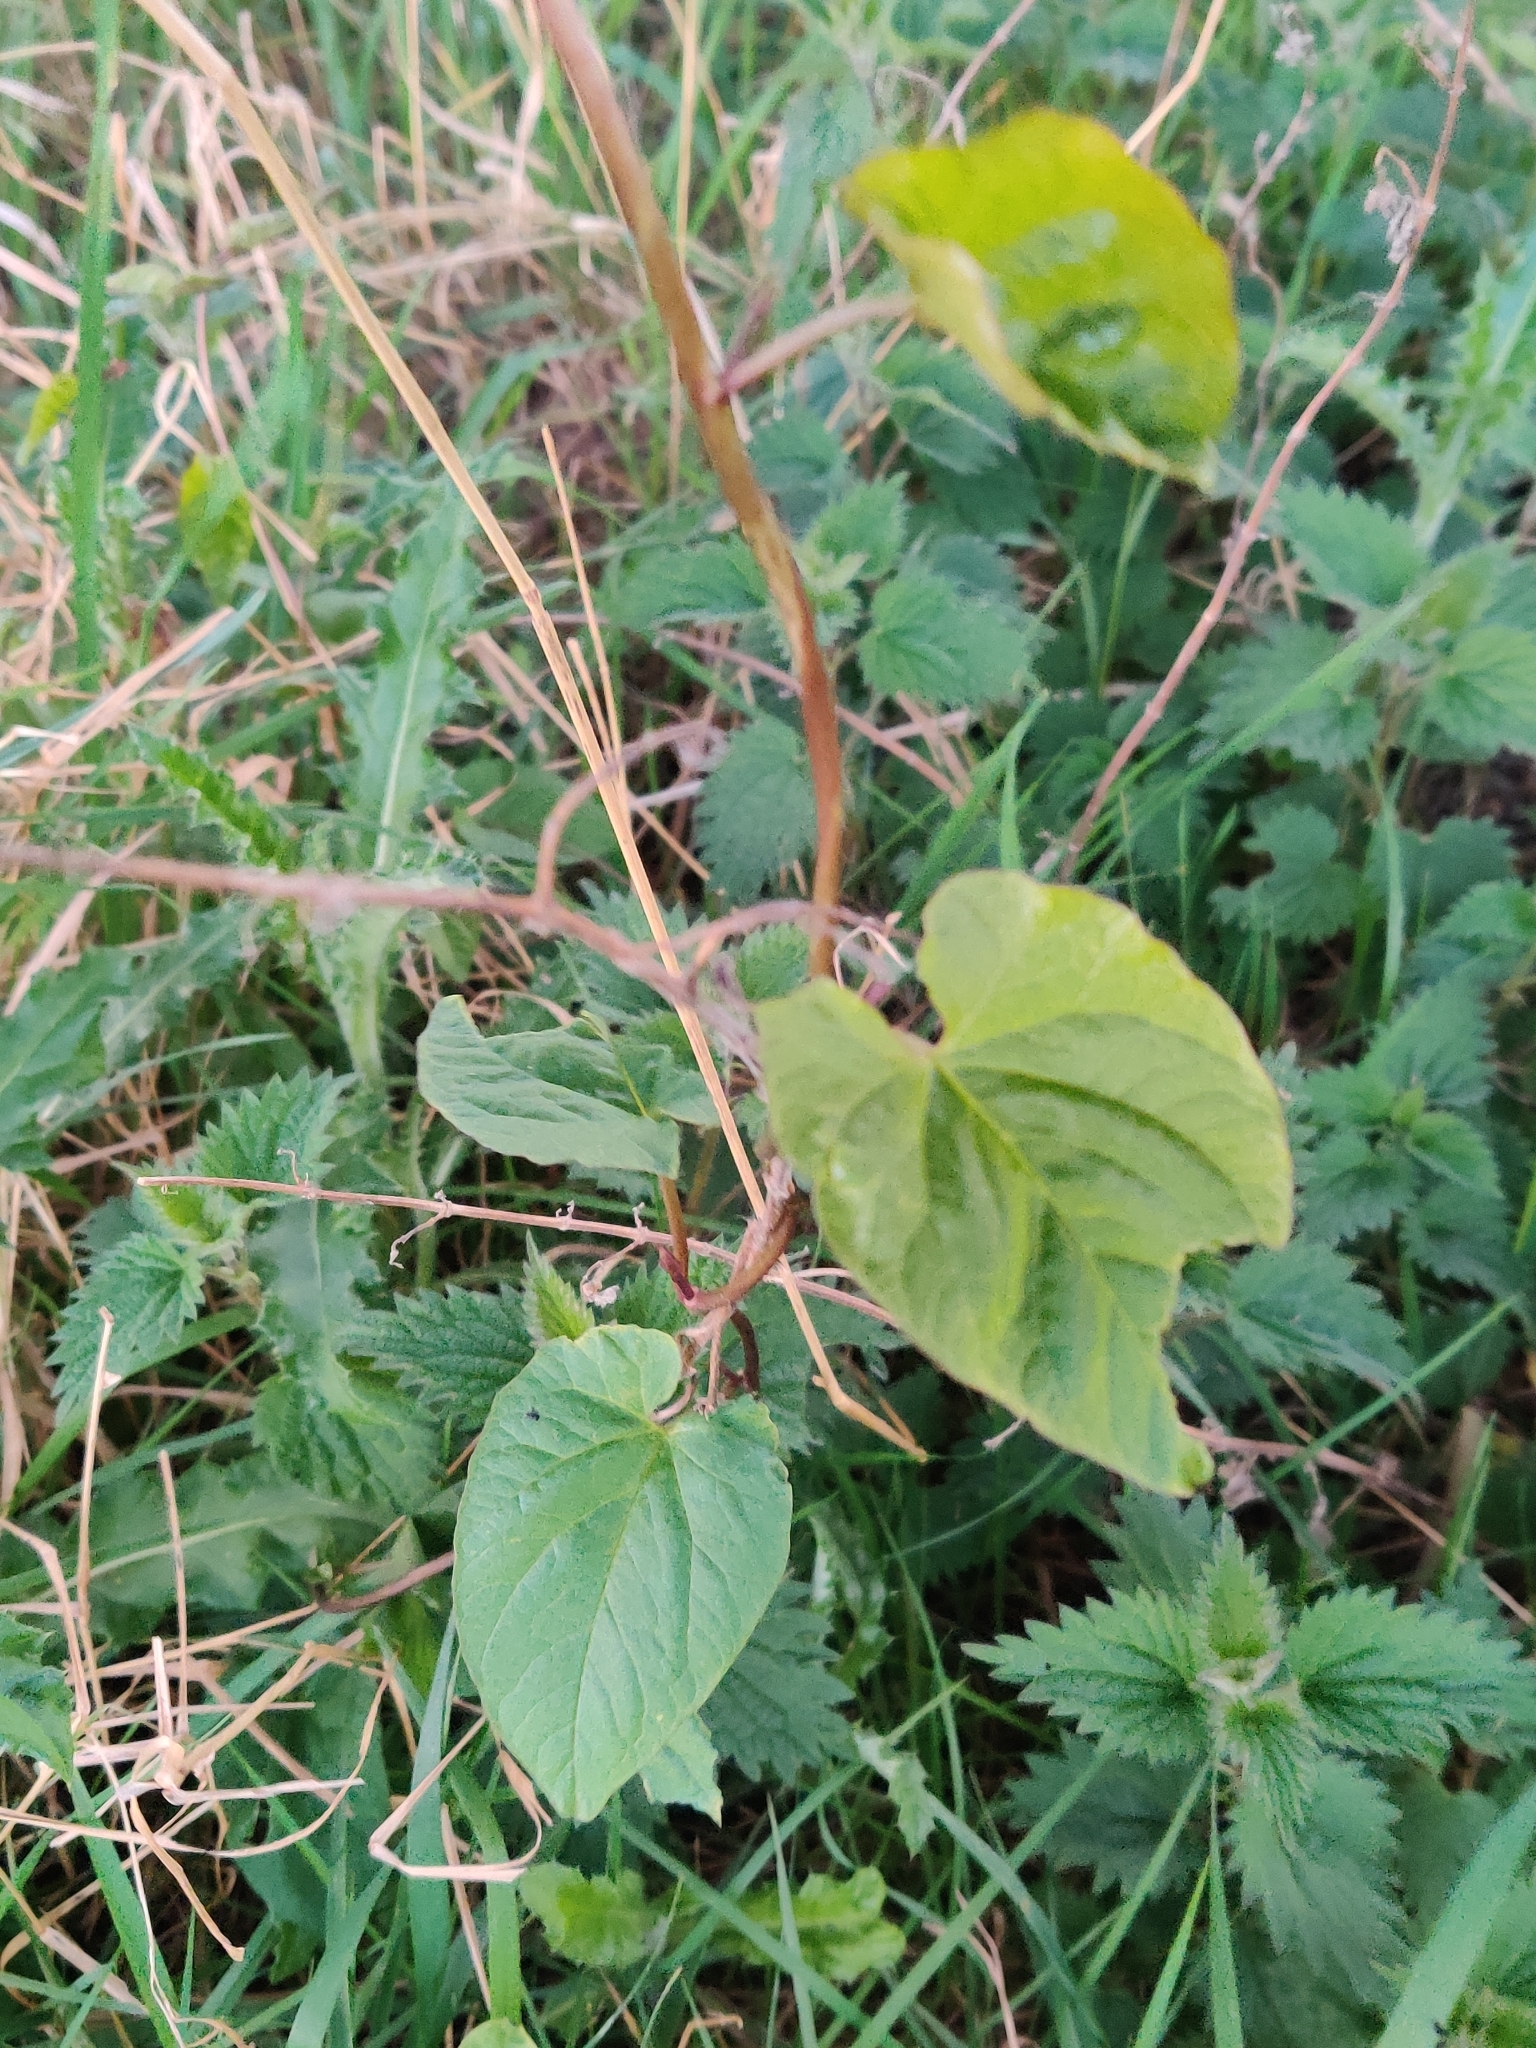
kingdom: Plantae
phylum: Tracheophyta
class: Magnoliopsida
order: Solanales
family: Convolvulaceae
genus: Calystegia
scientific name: Calystegia
